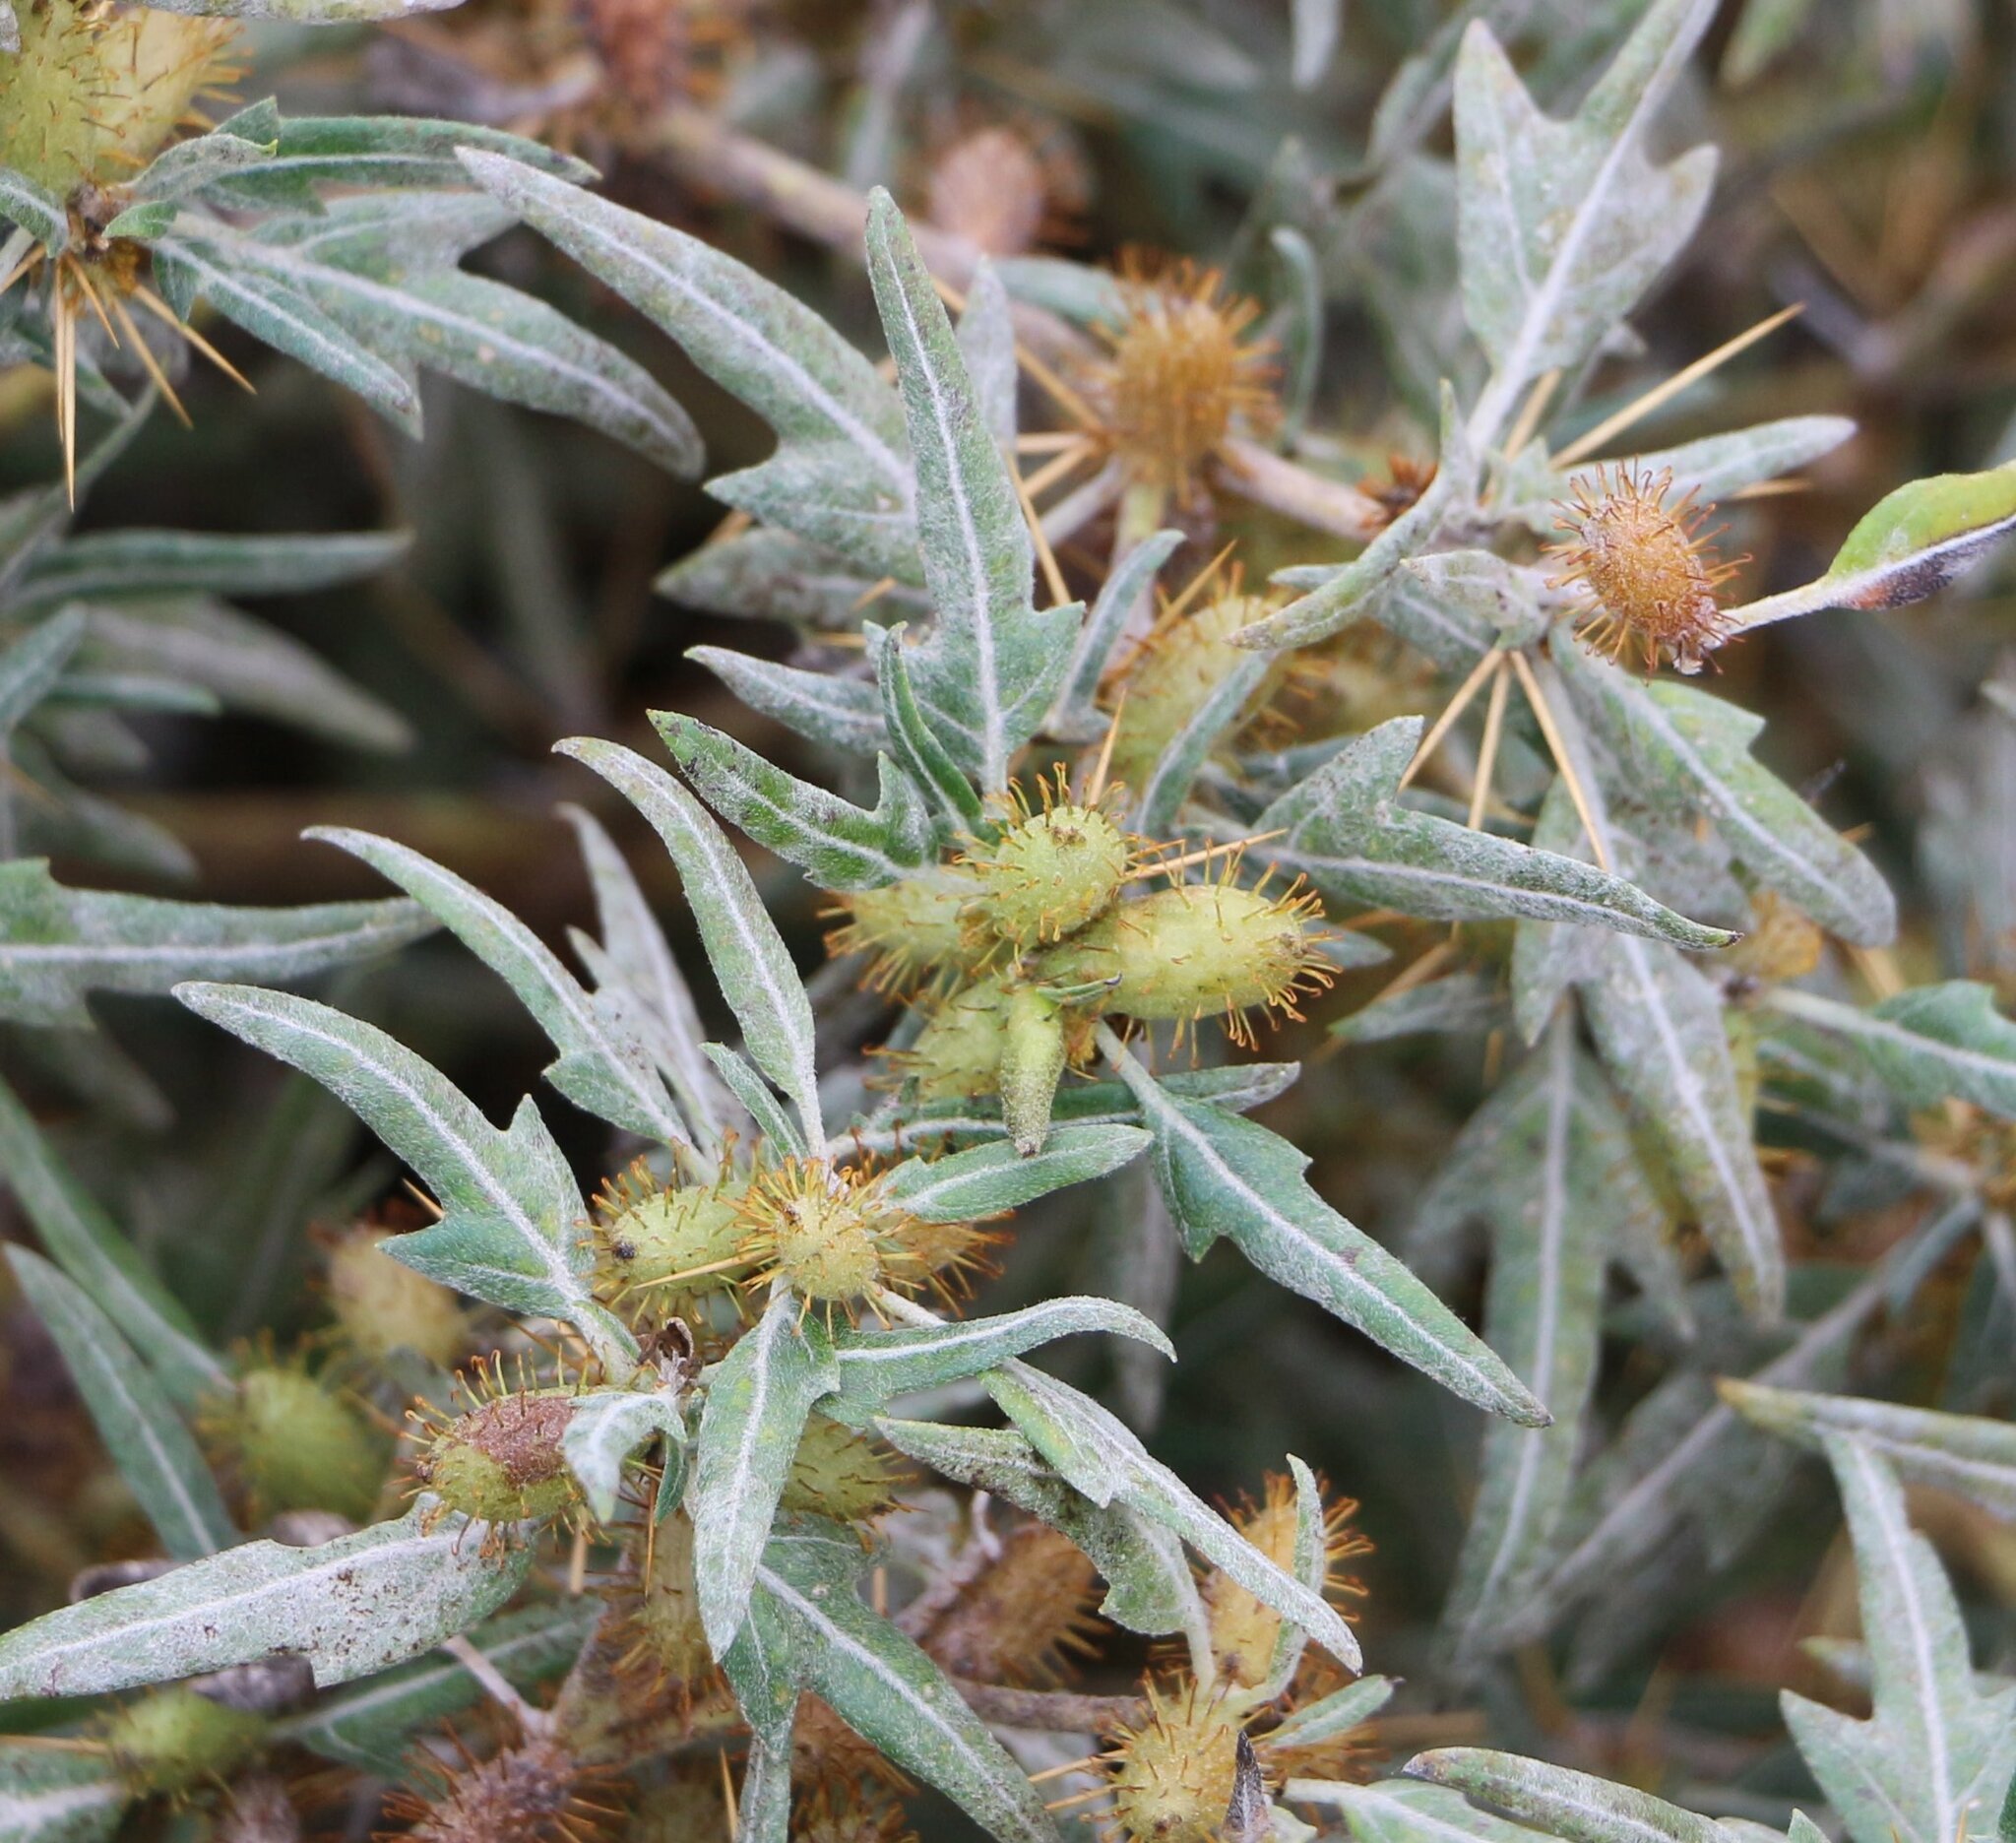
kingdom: Plantae
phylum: Tracheophyta
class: Magnoliopsida
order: Asterales
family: Asteraceae
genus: Xanthium
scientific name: Xanthium spinosum
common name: Spiny cocklebur
